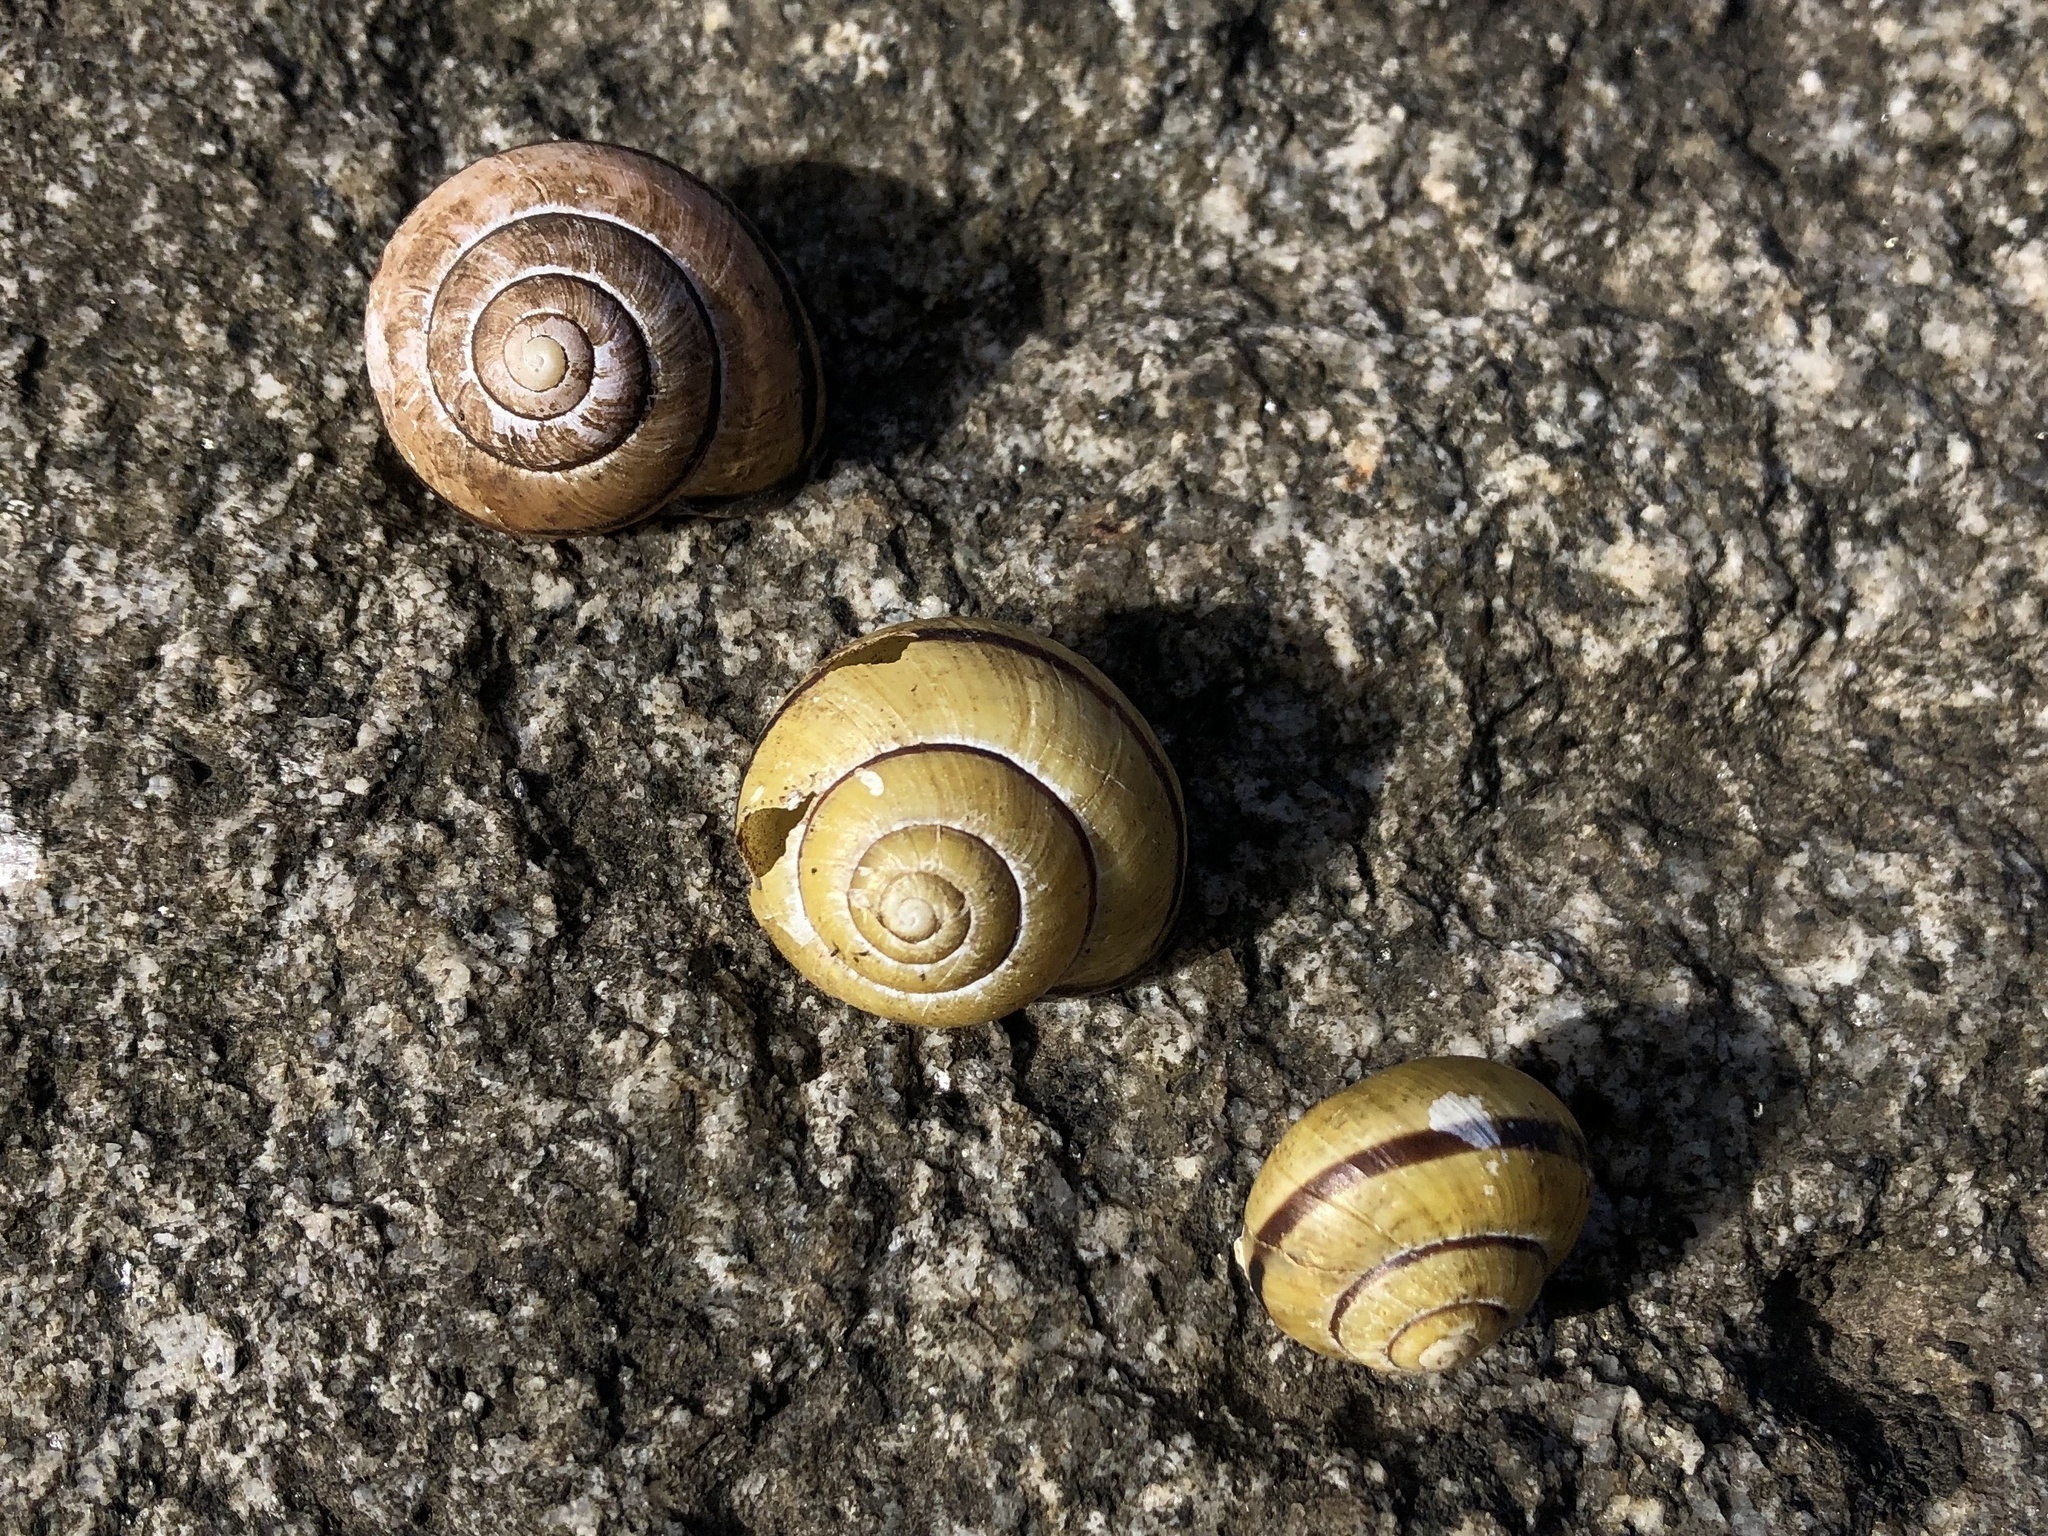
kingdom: Animalia
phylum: Mollusca
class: Gastropoda
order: Stylommatophora
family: Helicidae
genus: Cepaea
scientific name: Cepaea nemoralis
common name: Grovesnail
